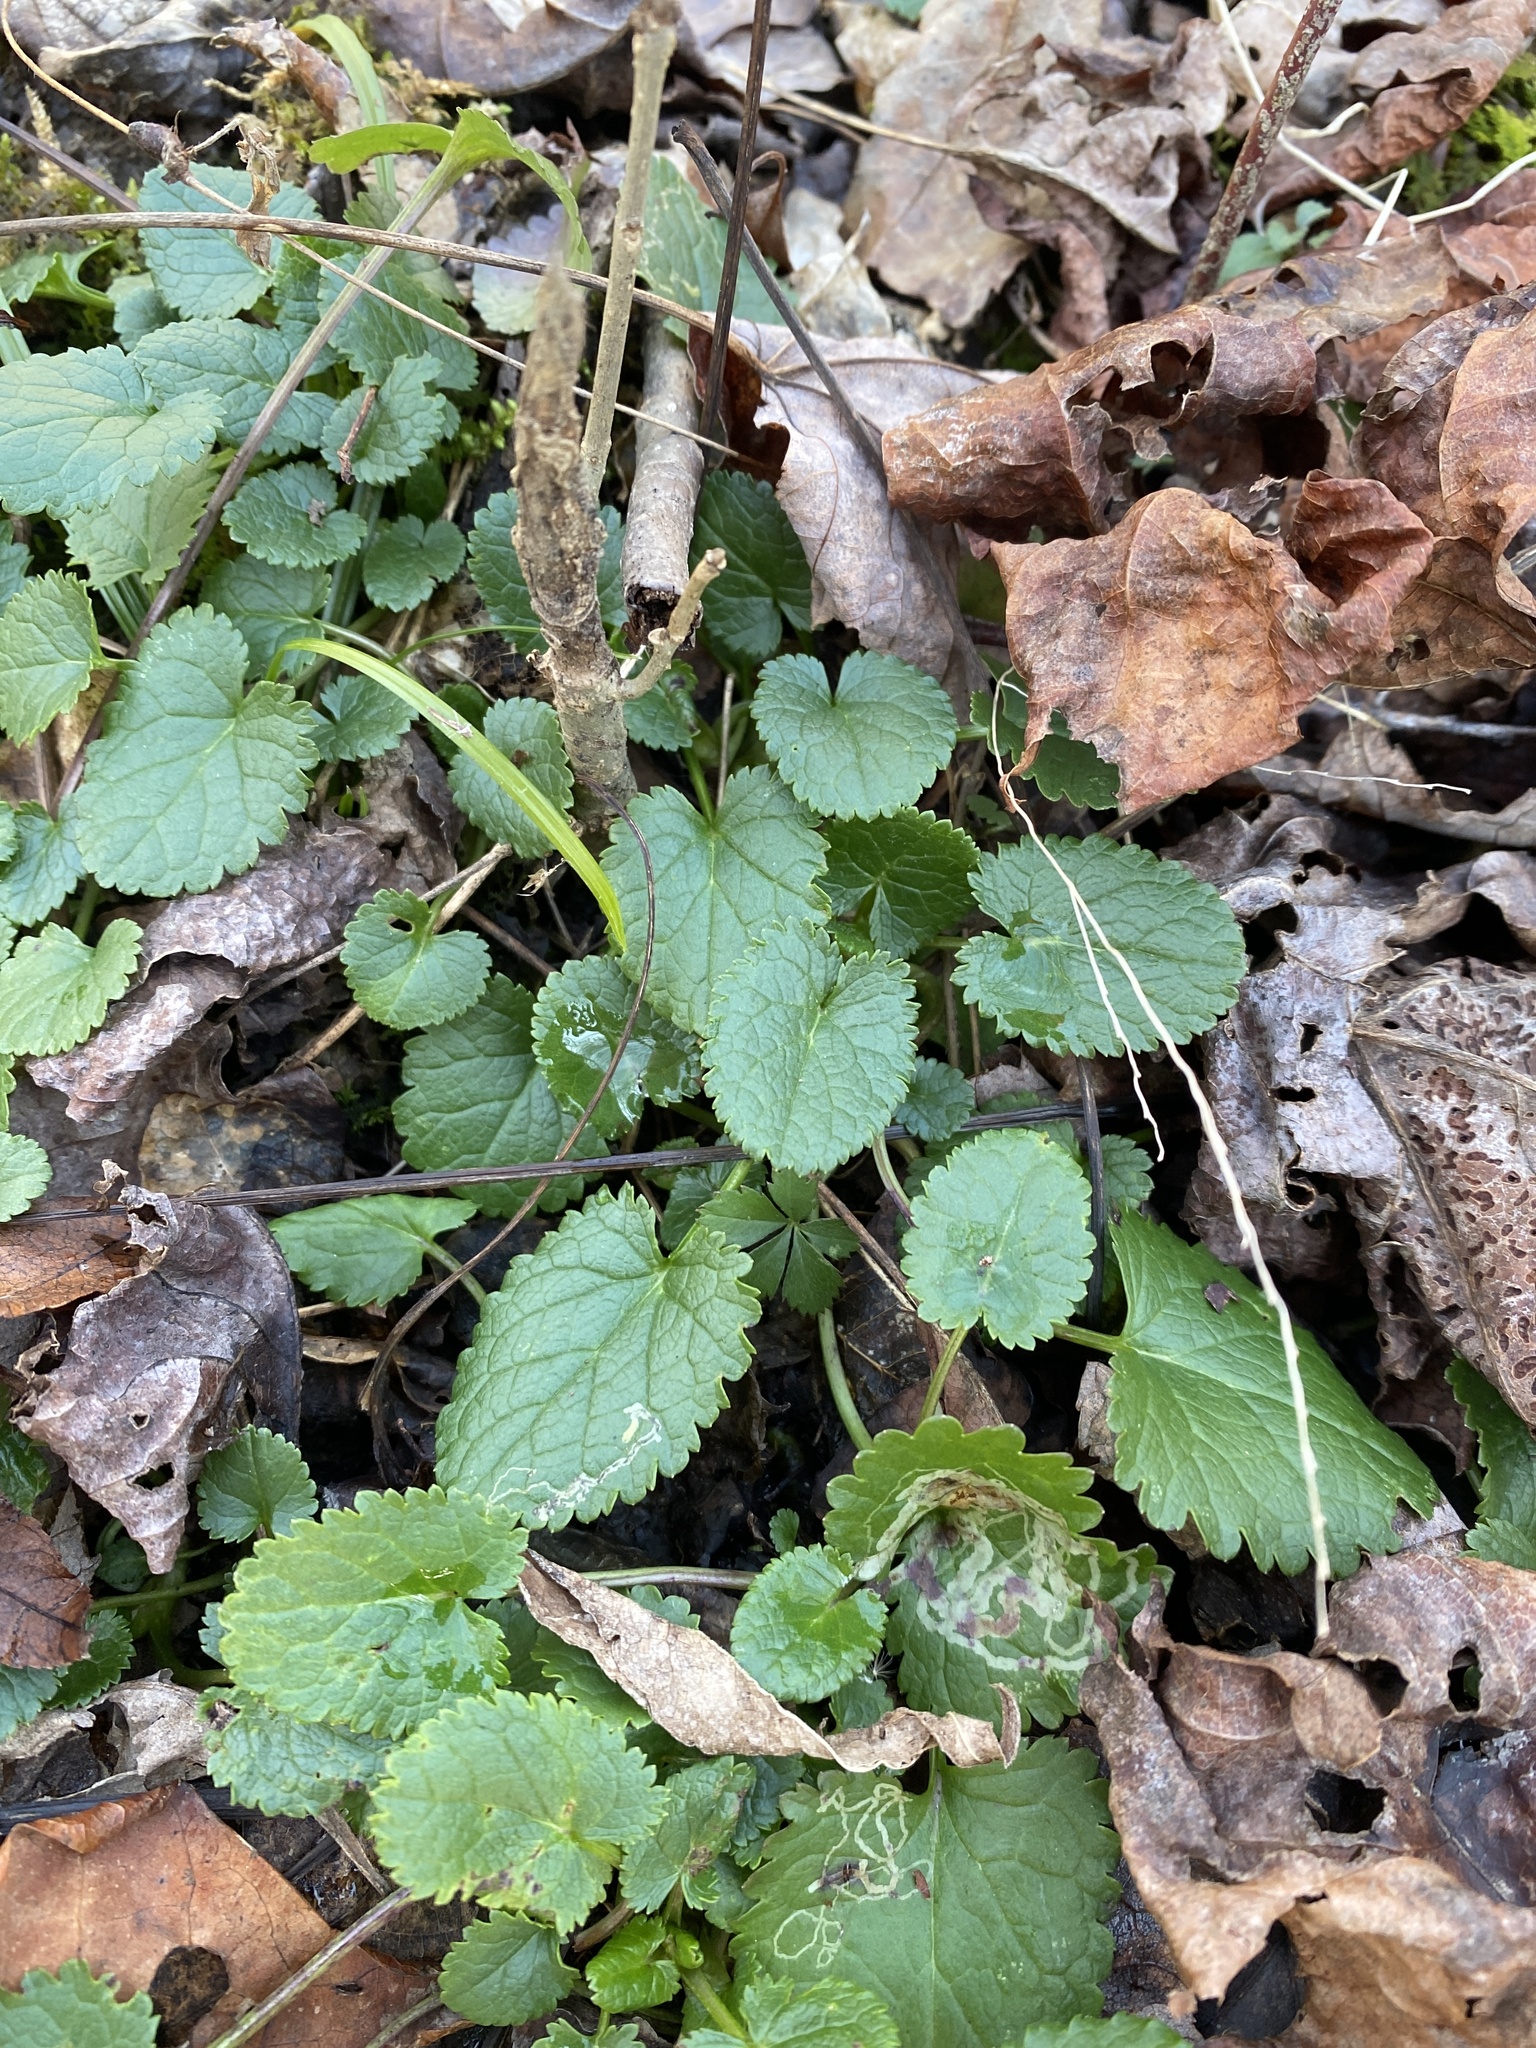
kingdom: Plantae
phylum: Tracheophyta
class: Magnoliopsida
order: Asterales
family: Asteraceae
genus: Packera
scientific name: Packera aurea
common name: Golden groundsel
